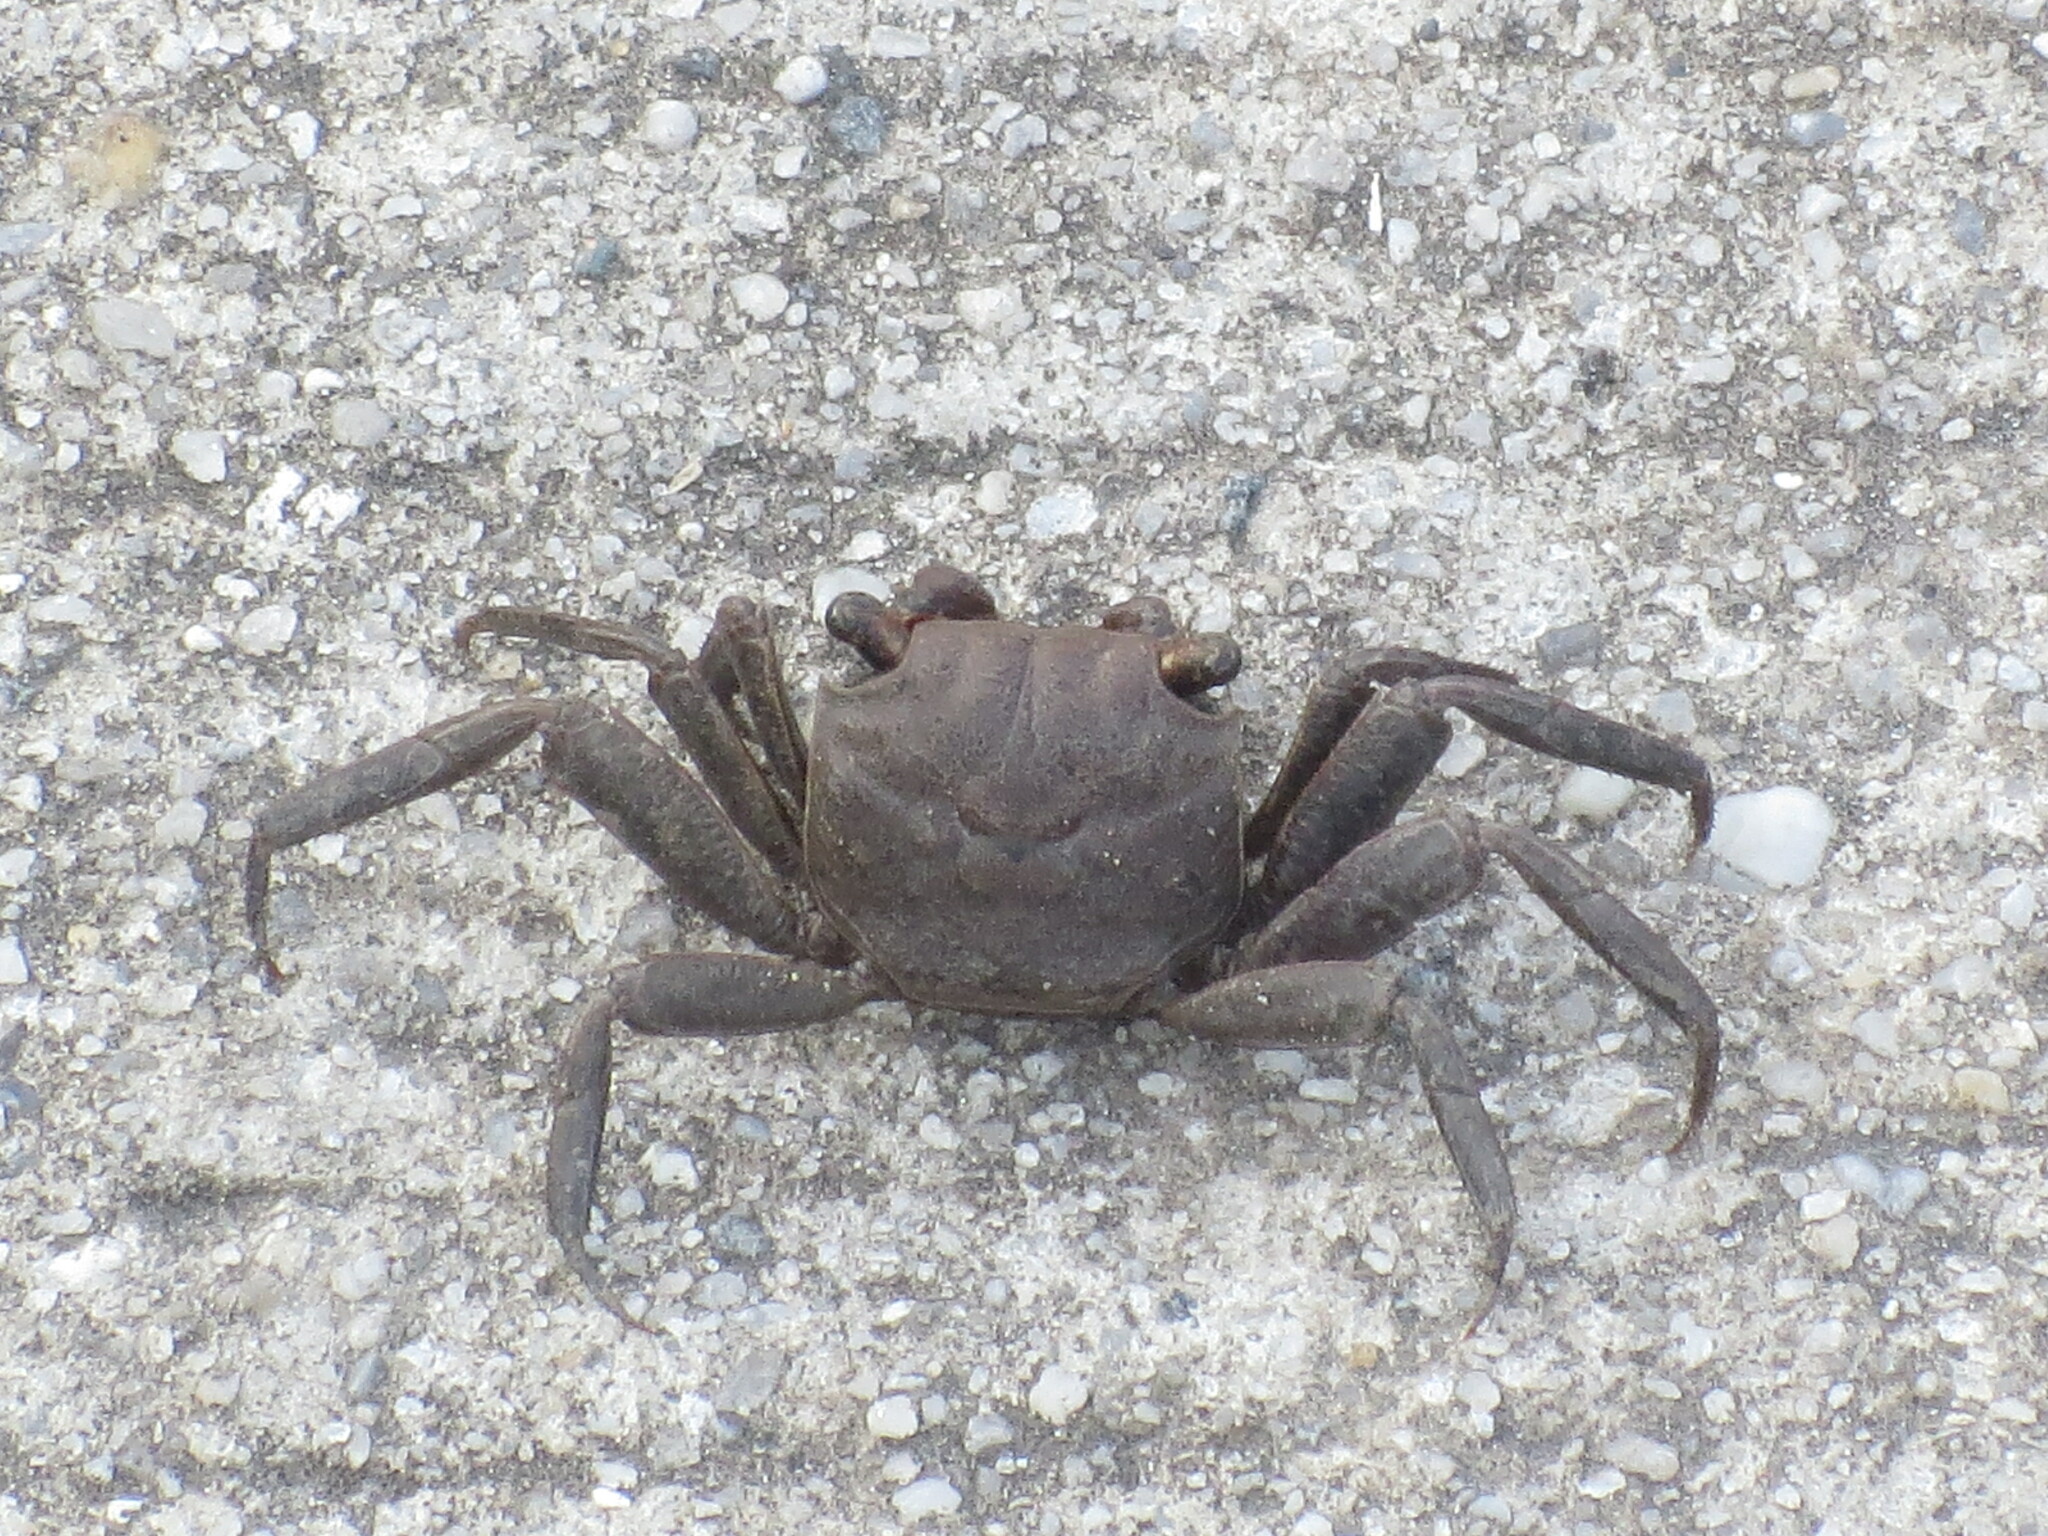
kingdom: Animalia
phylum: Arthropoda
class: Malacostraca
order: Decapoda
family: Sesarmidae
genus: Armases
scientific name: Armases cinereum
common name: Squareback marsh crab
